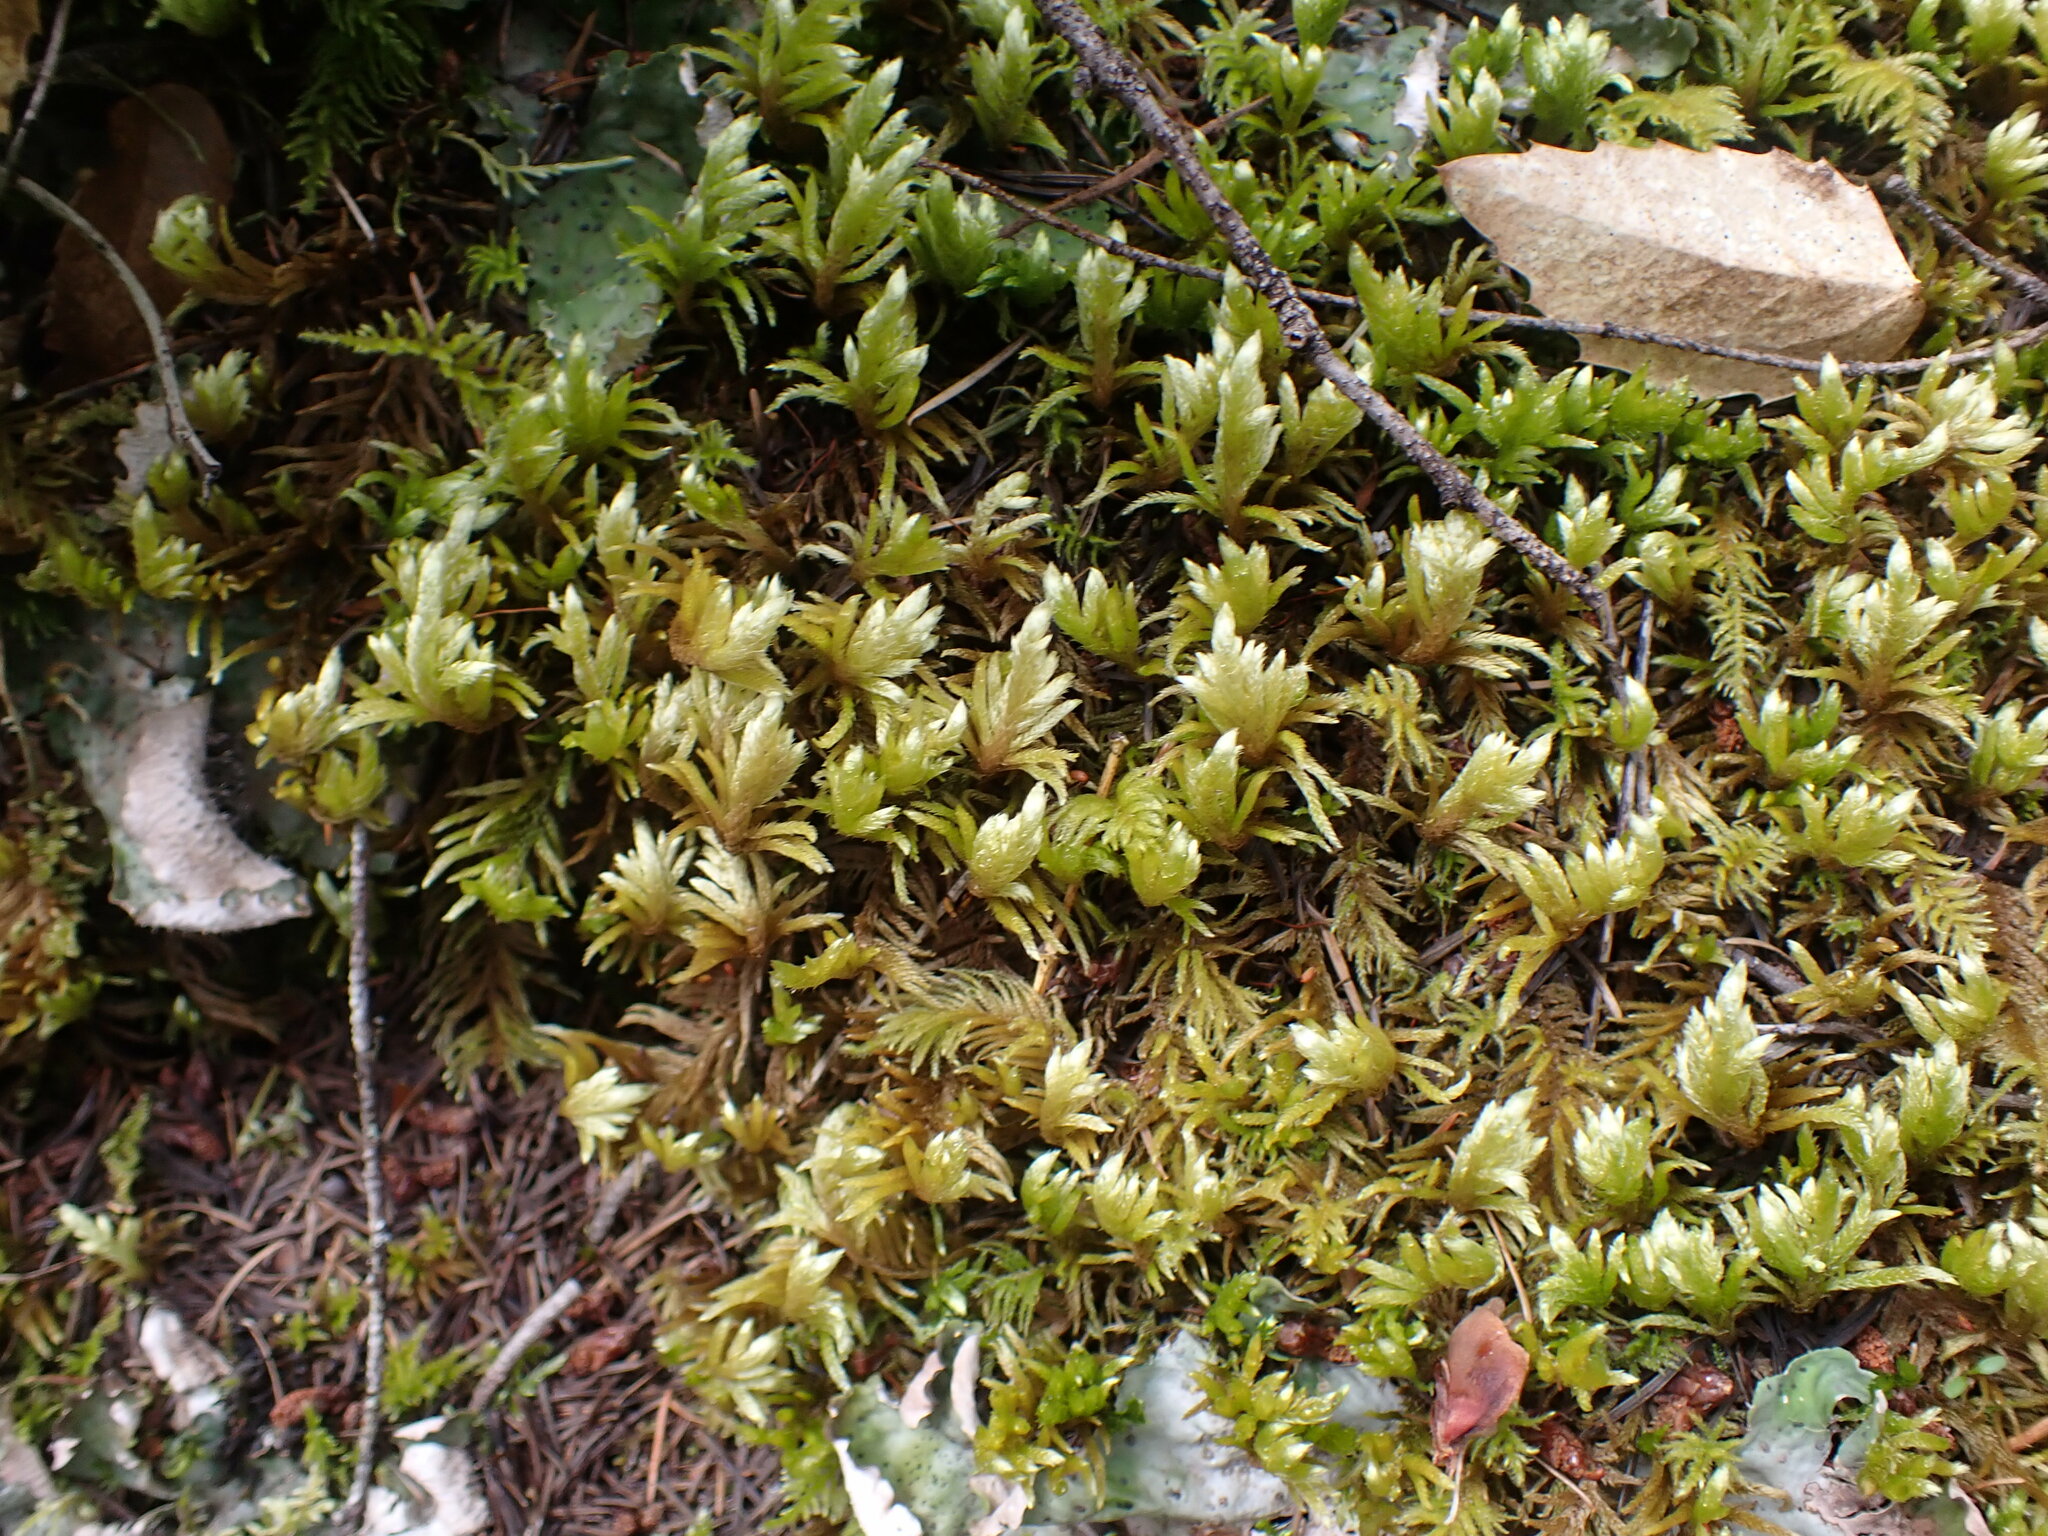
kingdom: Plantae
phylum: Bryophyta
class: Bryopsida
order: Hypnales
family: Brachytheciaceae
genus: Homalothecium
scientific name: Homalothecium megaptilum
